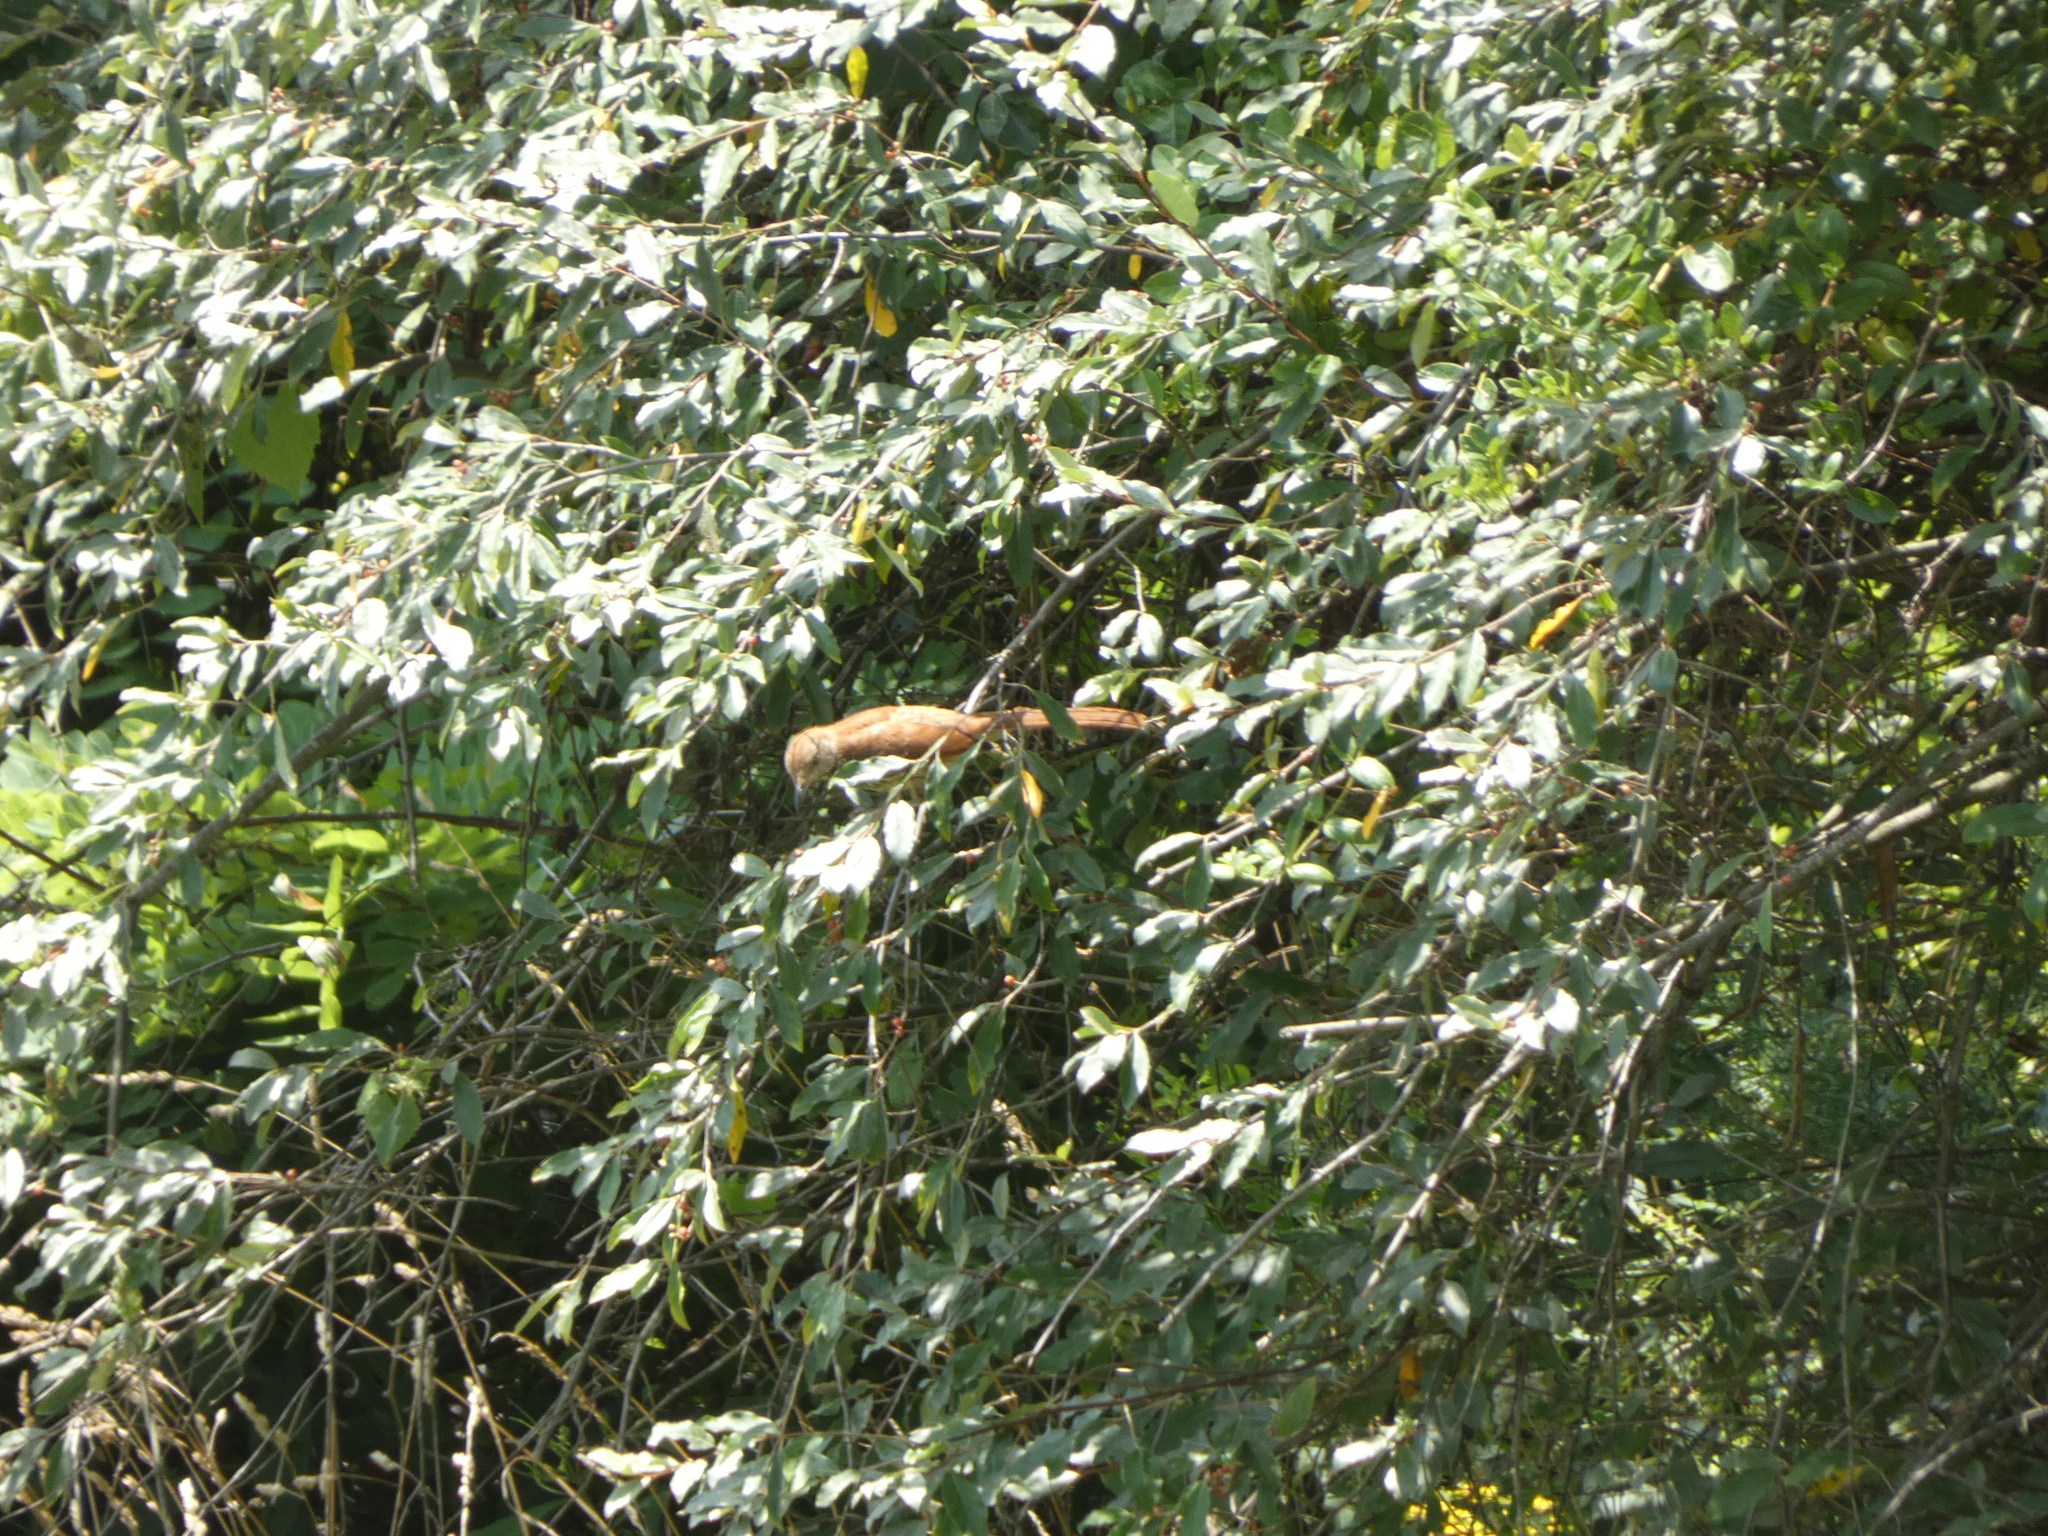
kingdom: Animalia
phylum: Chordata
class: Aves
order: Passeriformes
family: Mimidae
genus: Toxostoma
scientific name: Toxostoma rufum
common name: Brown thrasher
